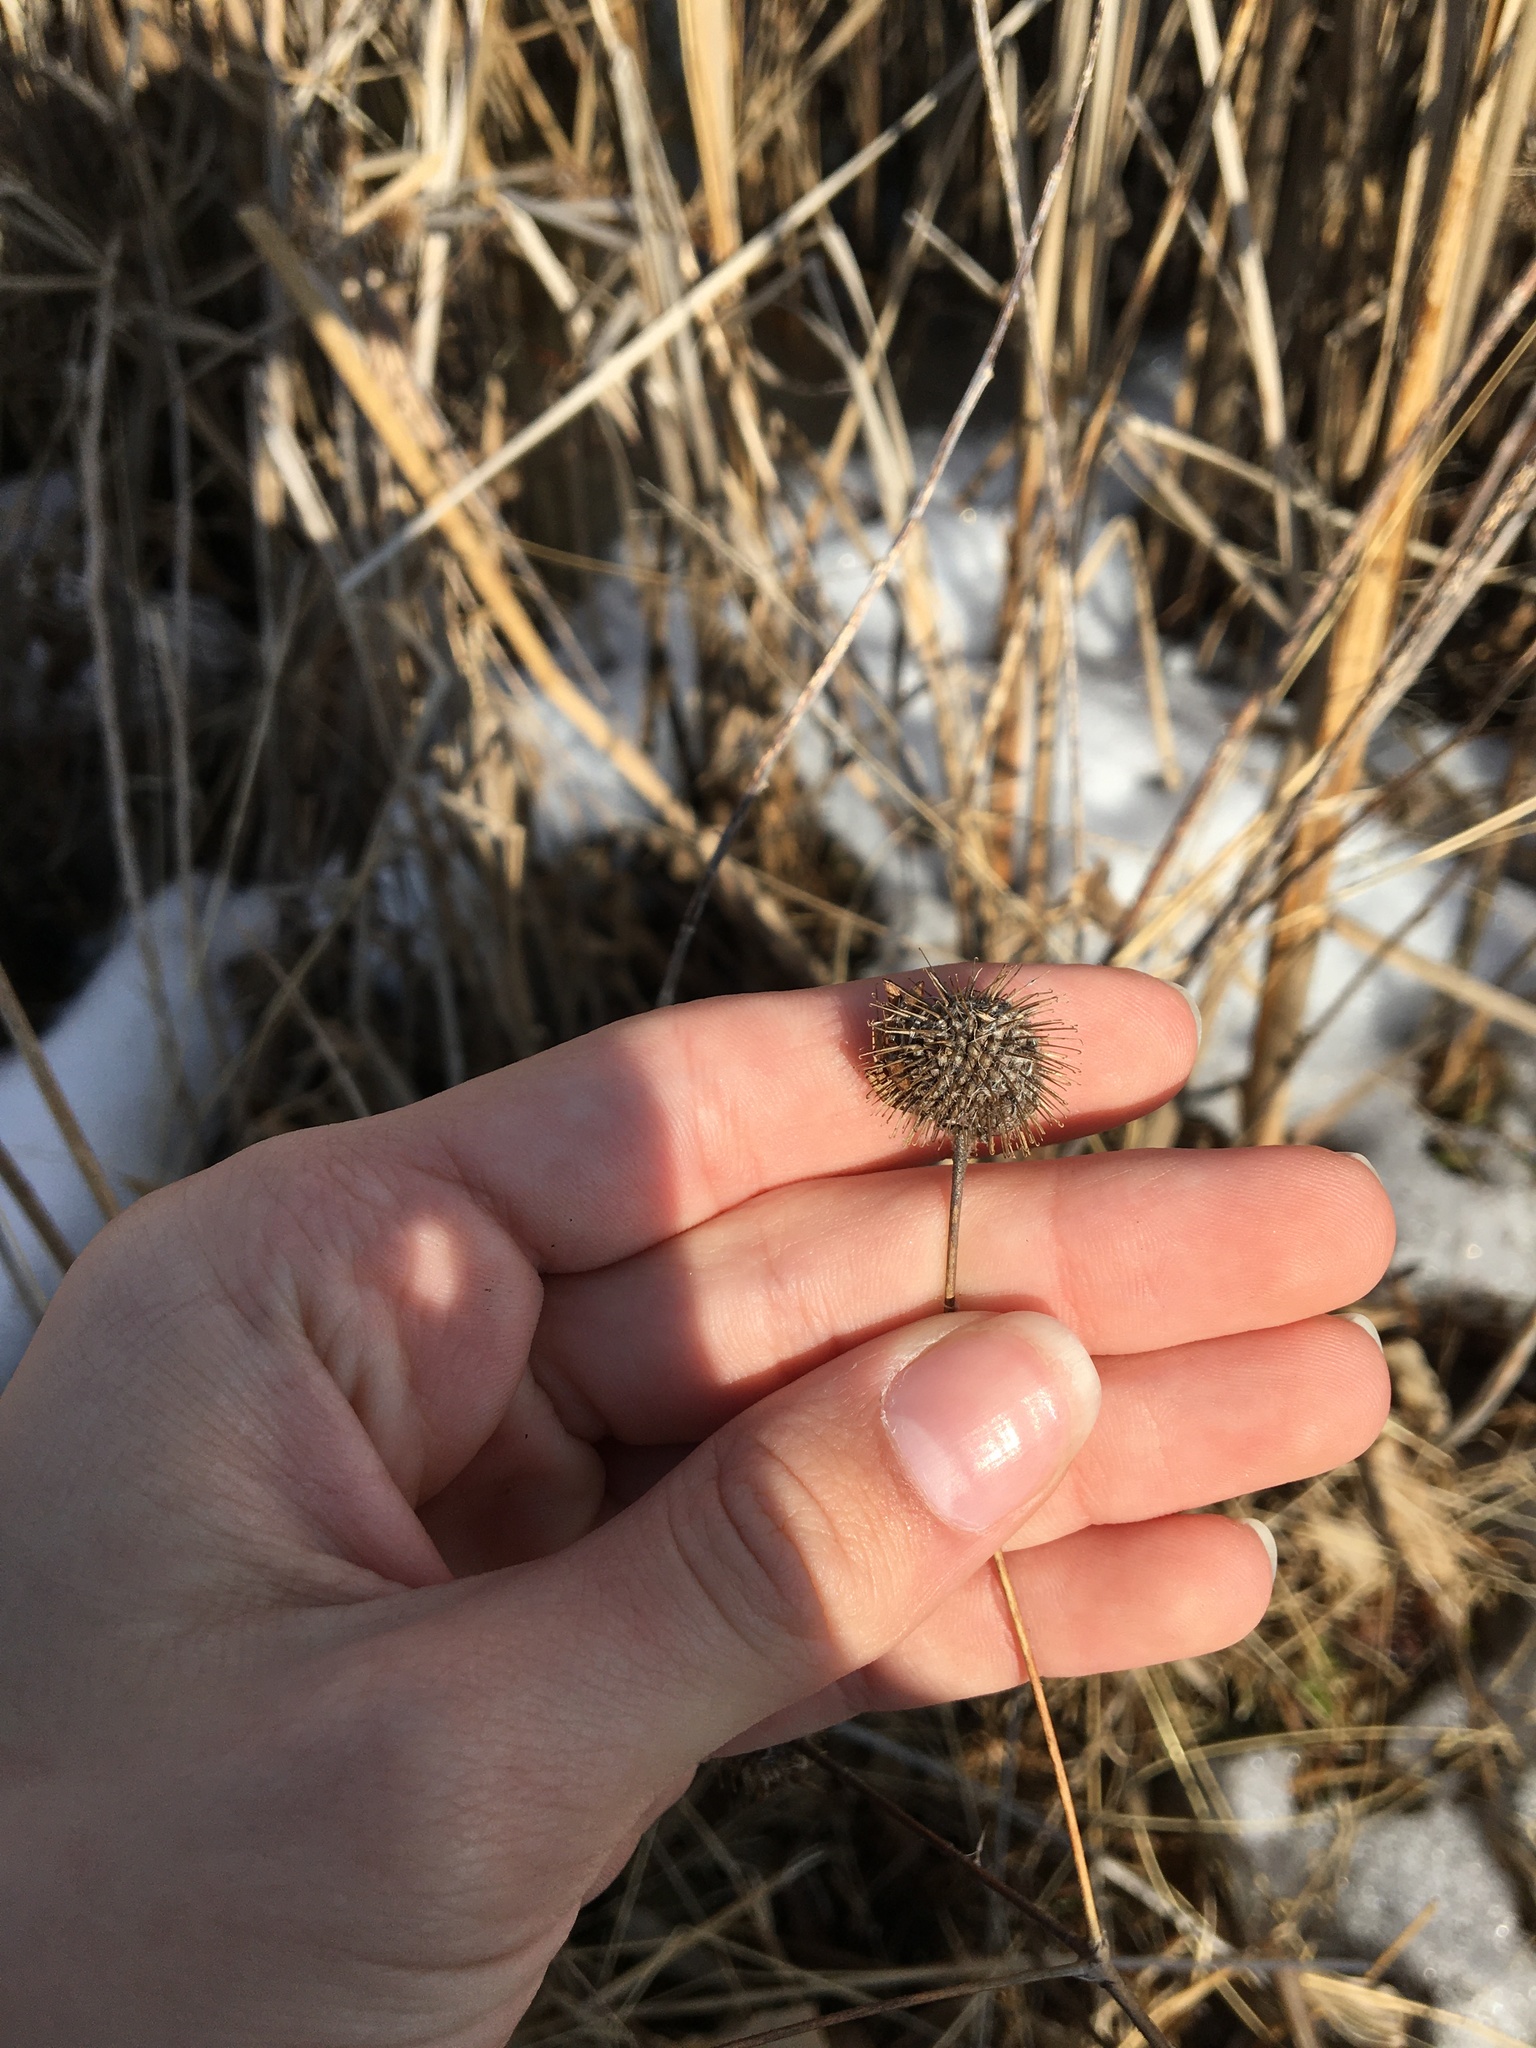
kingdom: Plantae
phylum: Tracheophyta
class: Magnoliopsida
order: Rosales
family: Rosaceae
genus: Geum
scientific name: Geum laciniatum
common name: Rough avens
